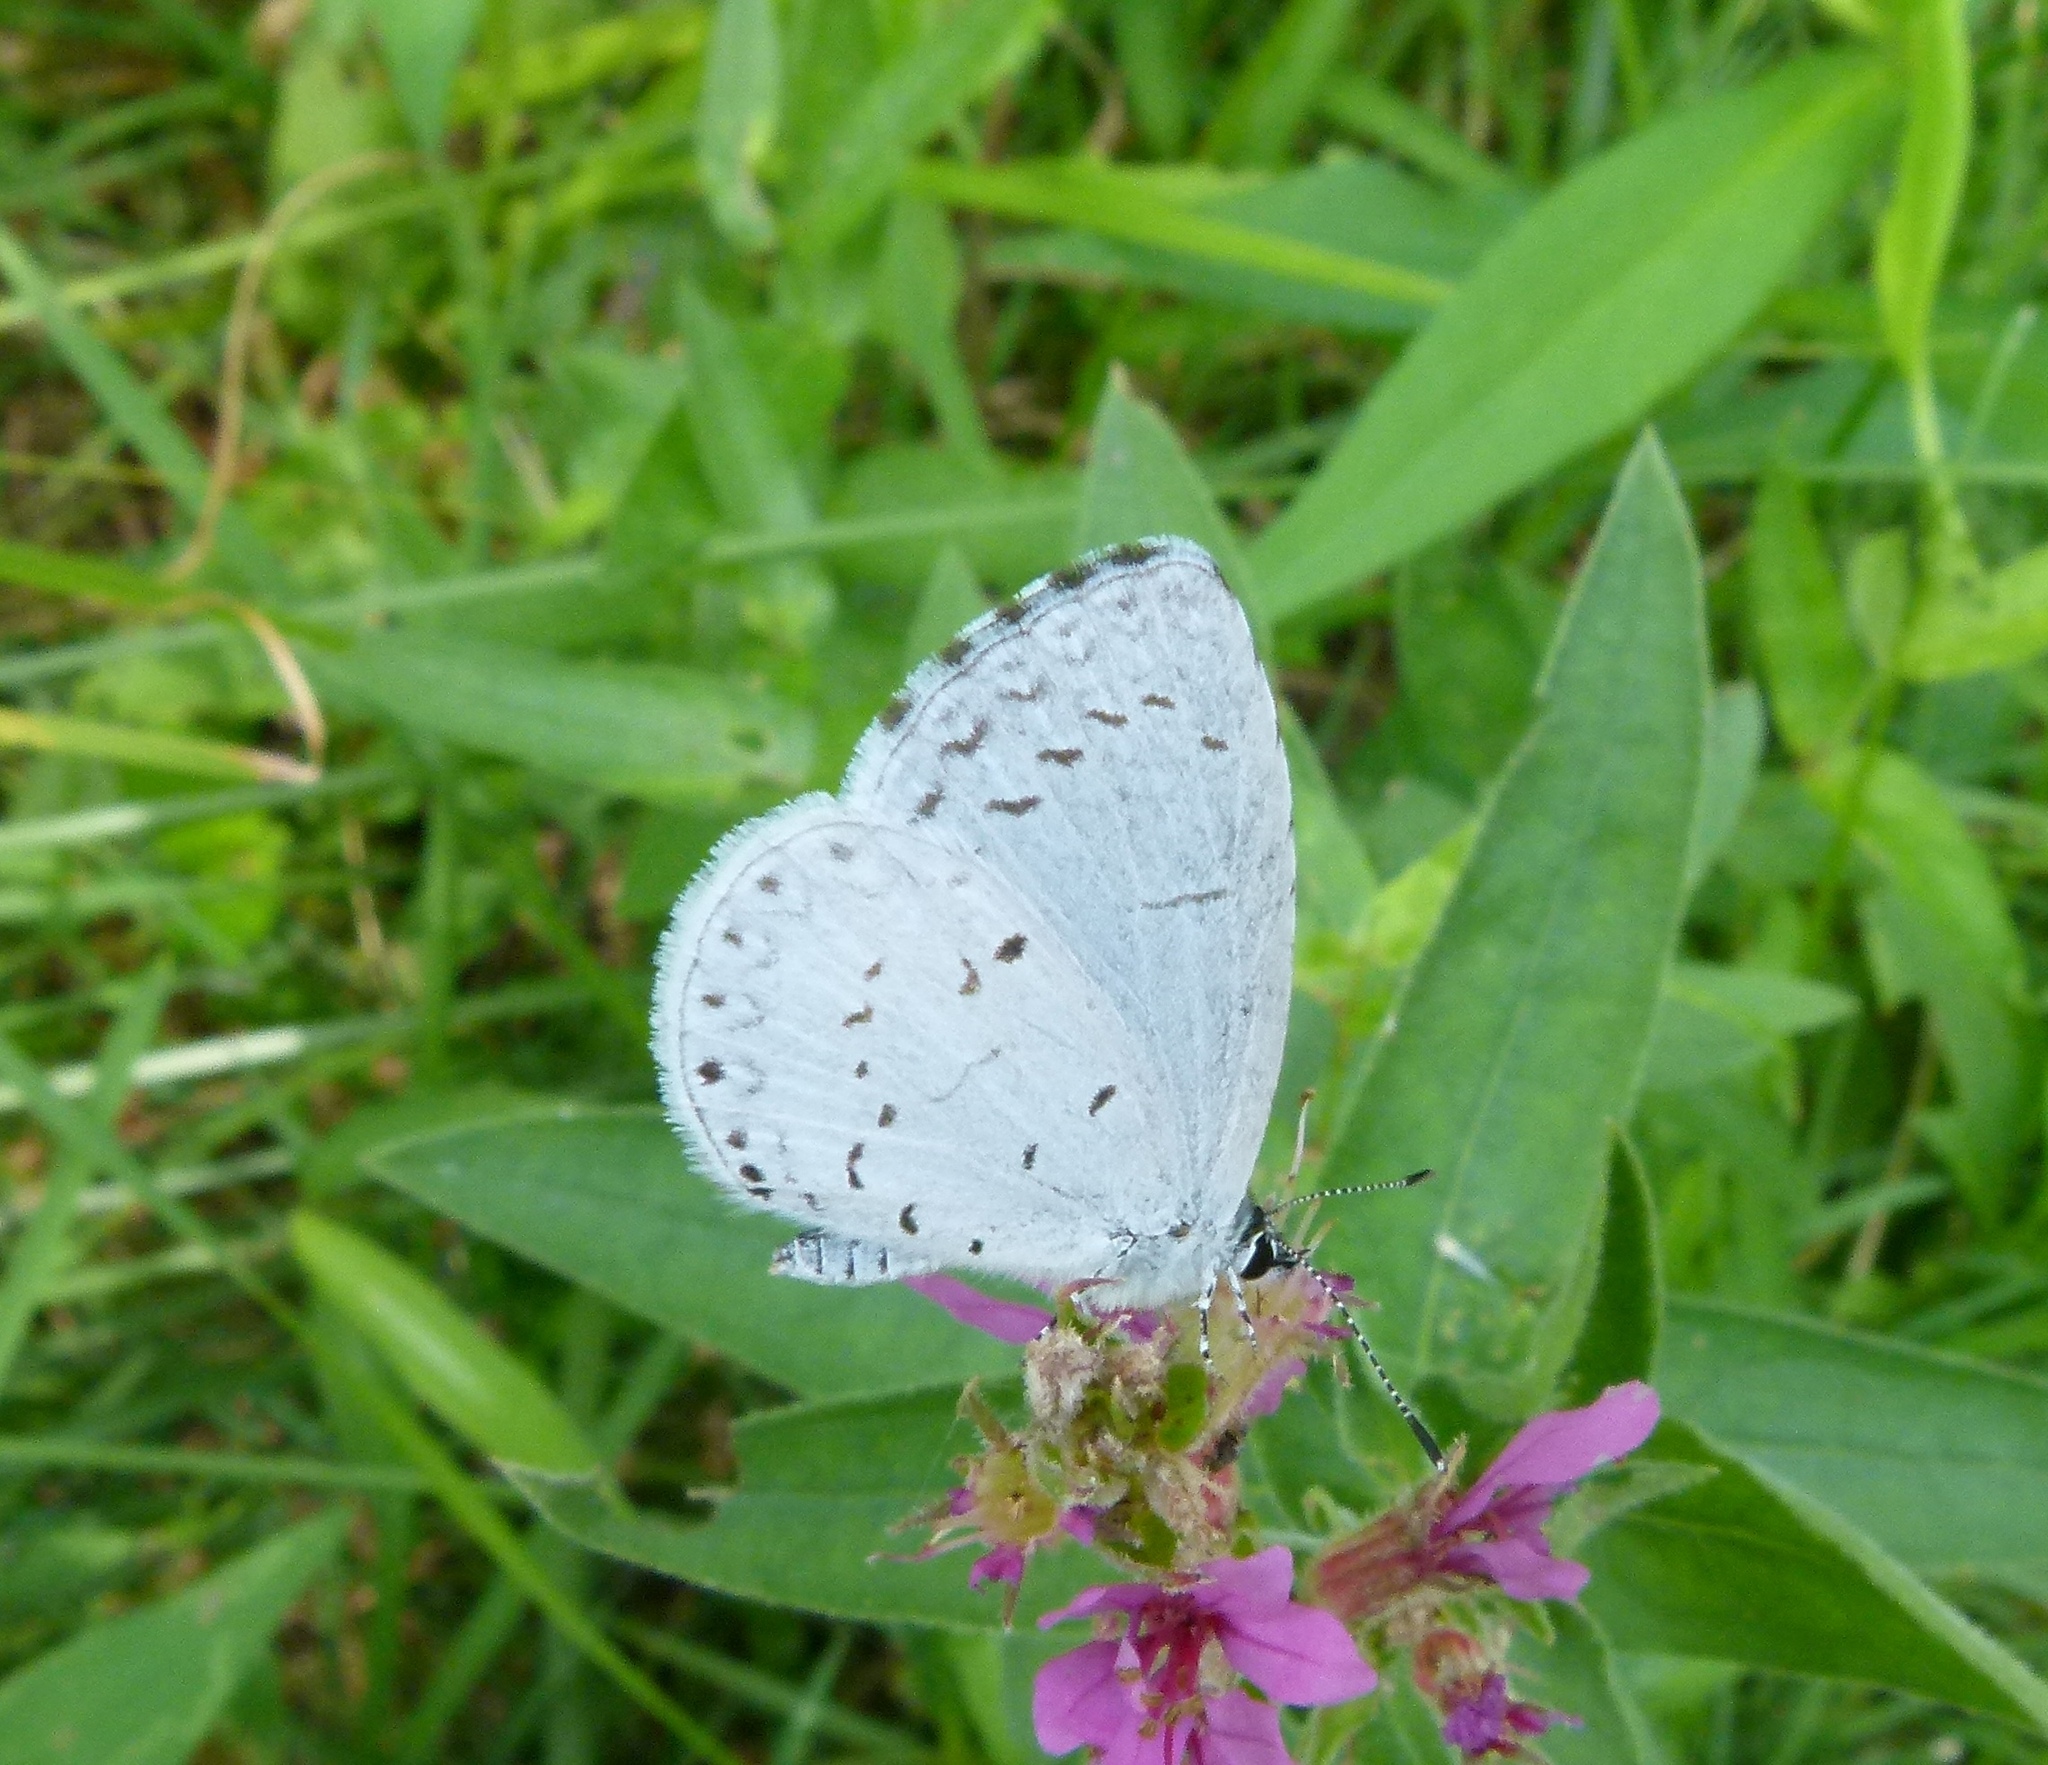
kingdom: Animalia
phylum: Arthropoda
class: Insecta
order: Lepidoptera
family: Lycaenidae
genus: Cyaniris
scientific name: Cyaniris neglecta
